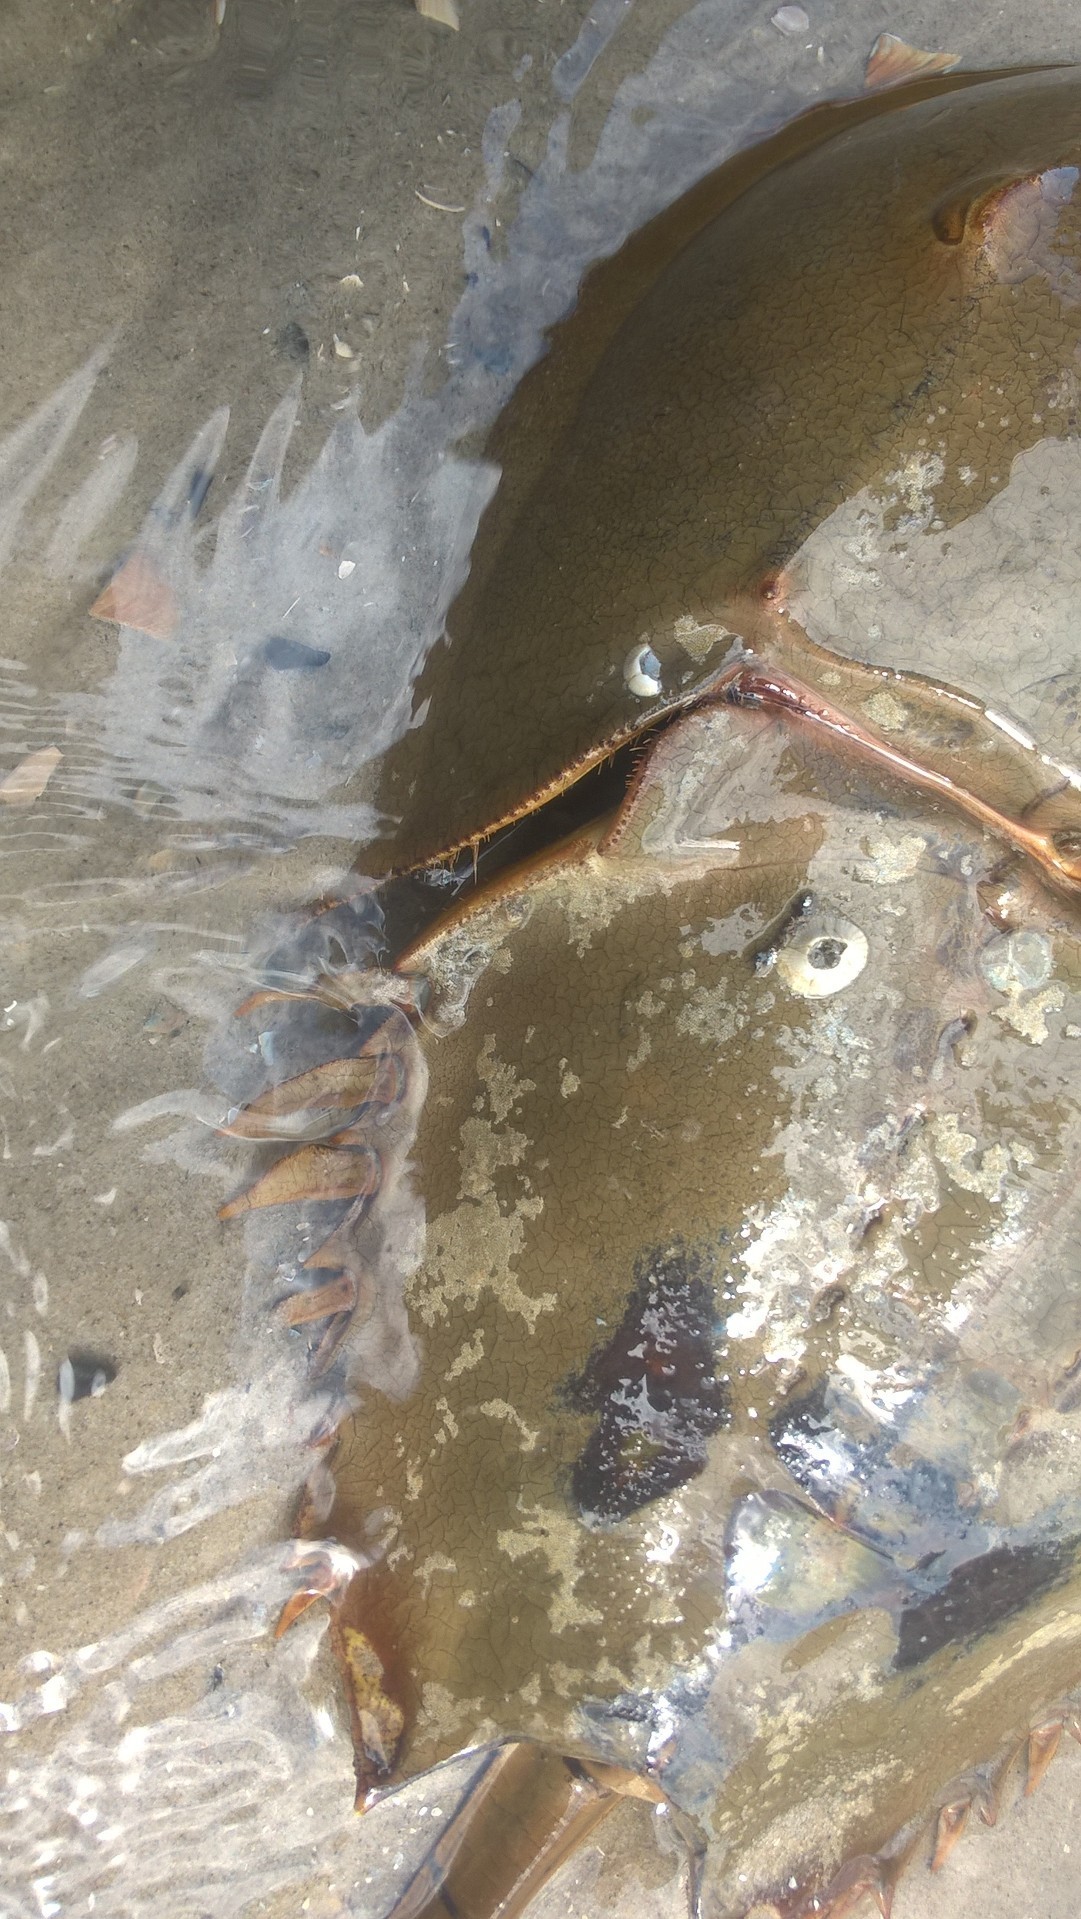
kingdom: Animalia
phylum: Arthropoda
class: Merostomata
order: Xiphosurida
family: Limulidae
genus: Limulus
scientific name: Limulus polyphemus
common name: Horseshoe crab
